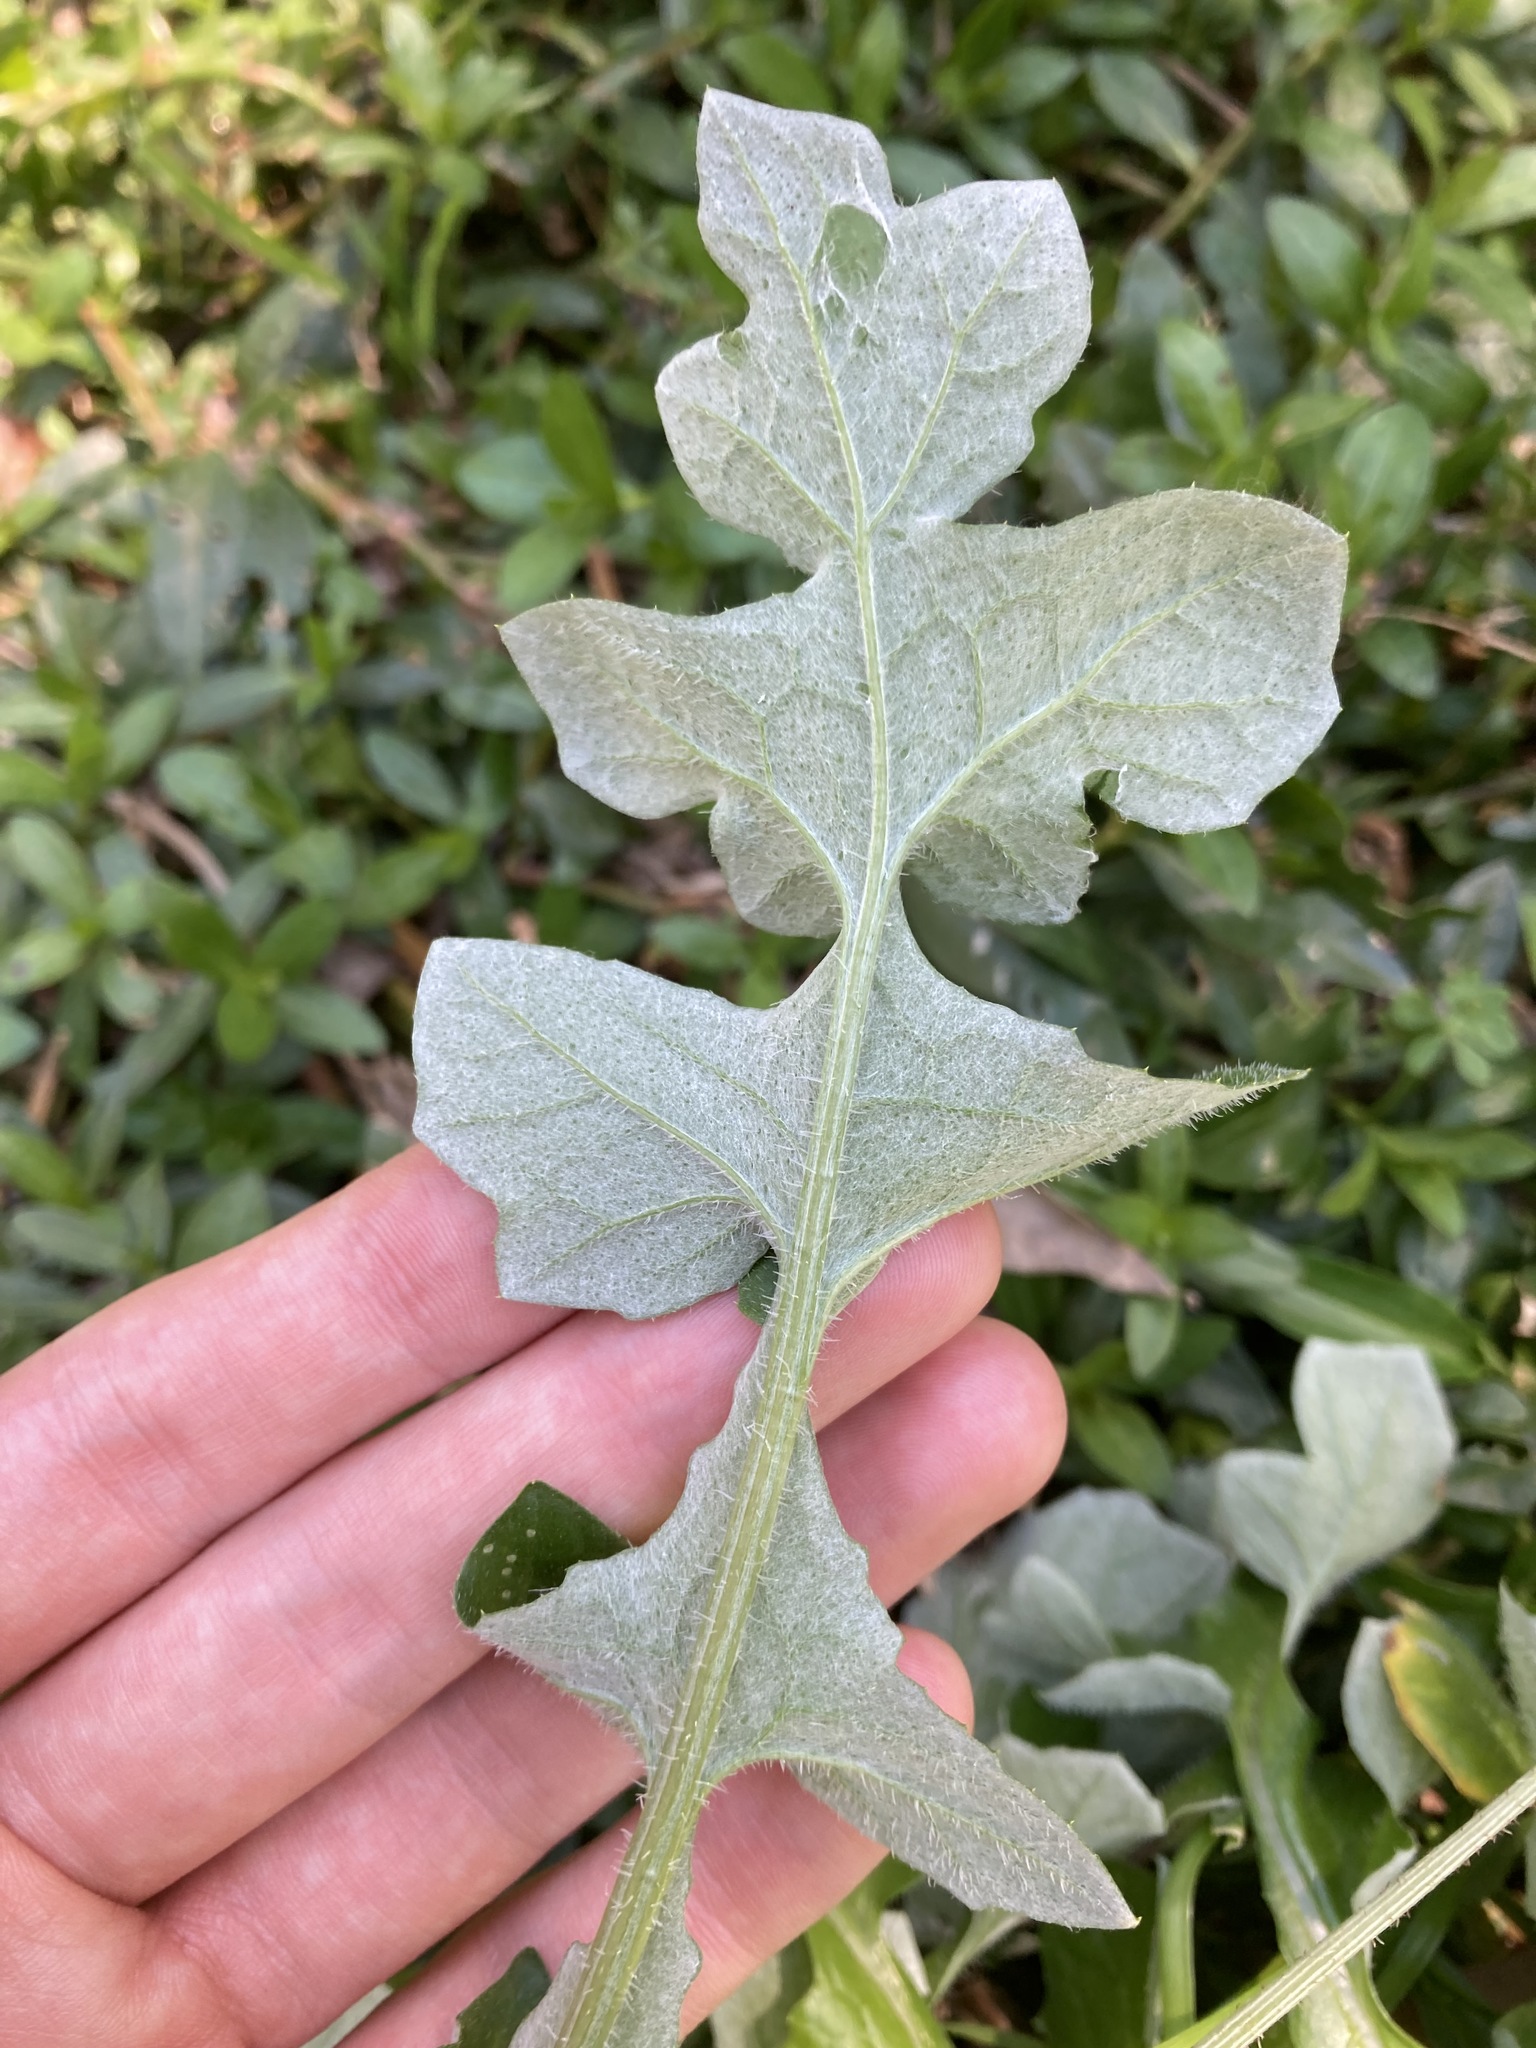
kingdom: Plantae
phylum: Tracheophyta
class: Magnoliopsida
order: Asterales
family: Asteraceae
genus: Arctotheca
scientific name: Arctotheca calendula
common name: Capeweed
